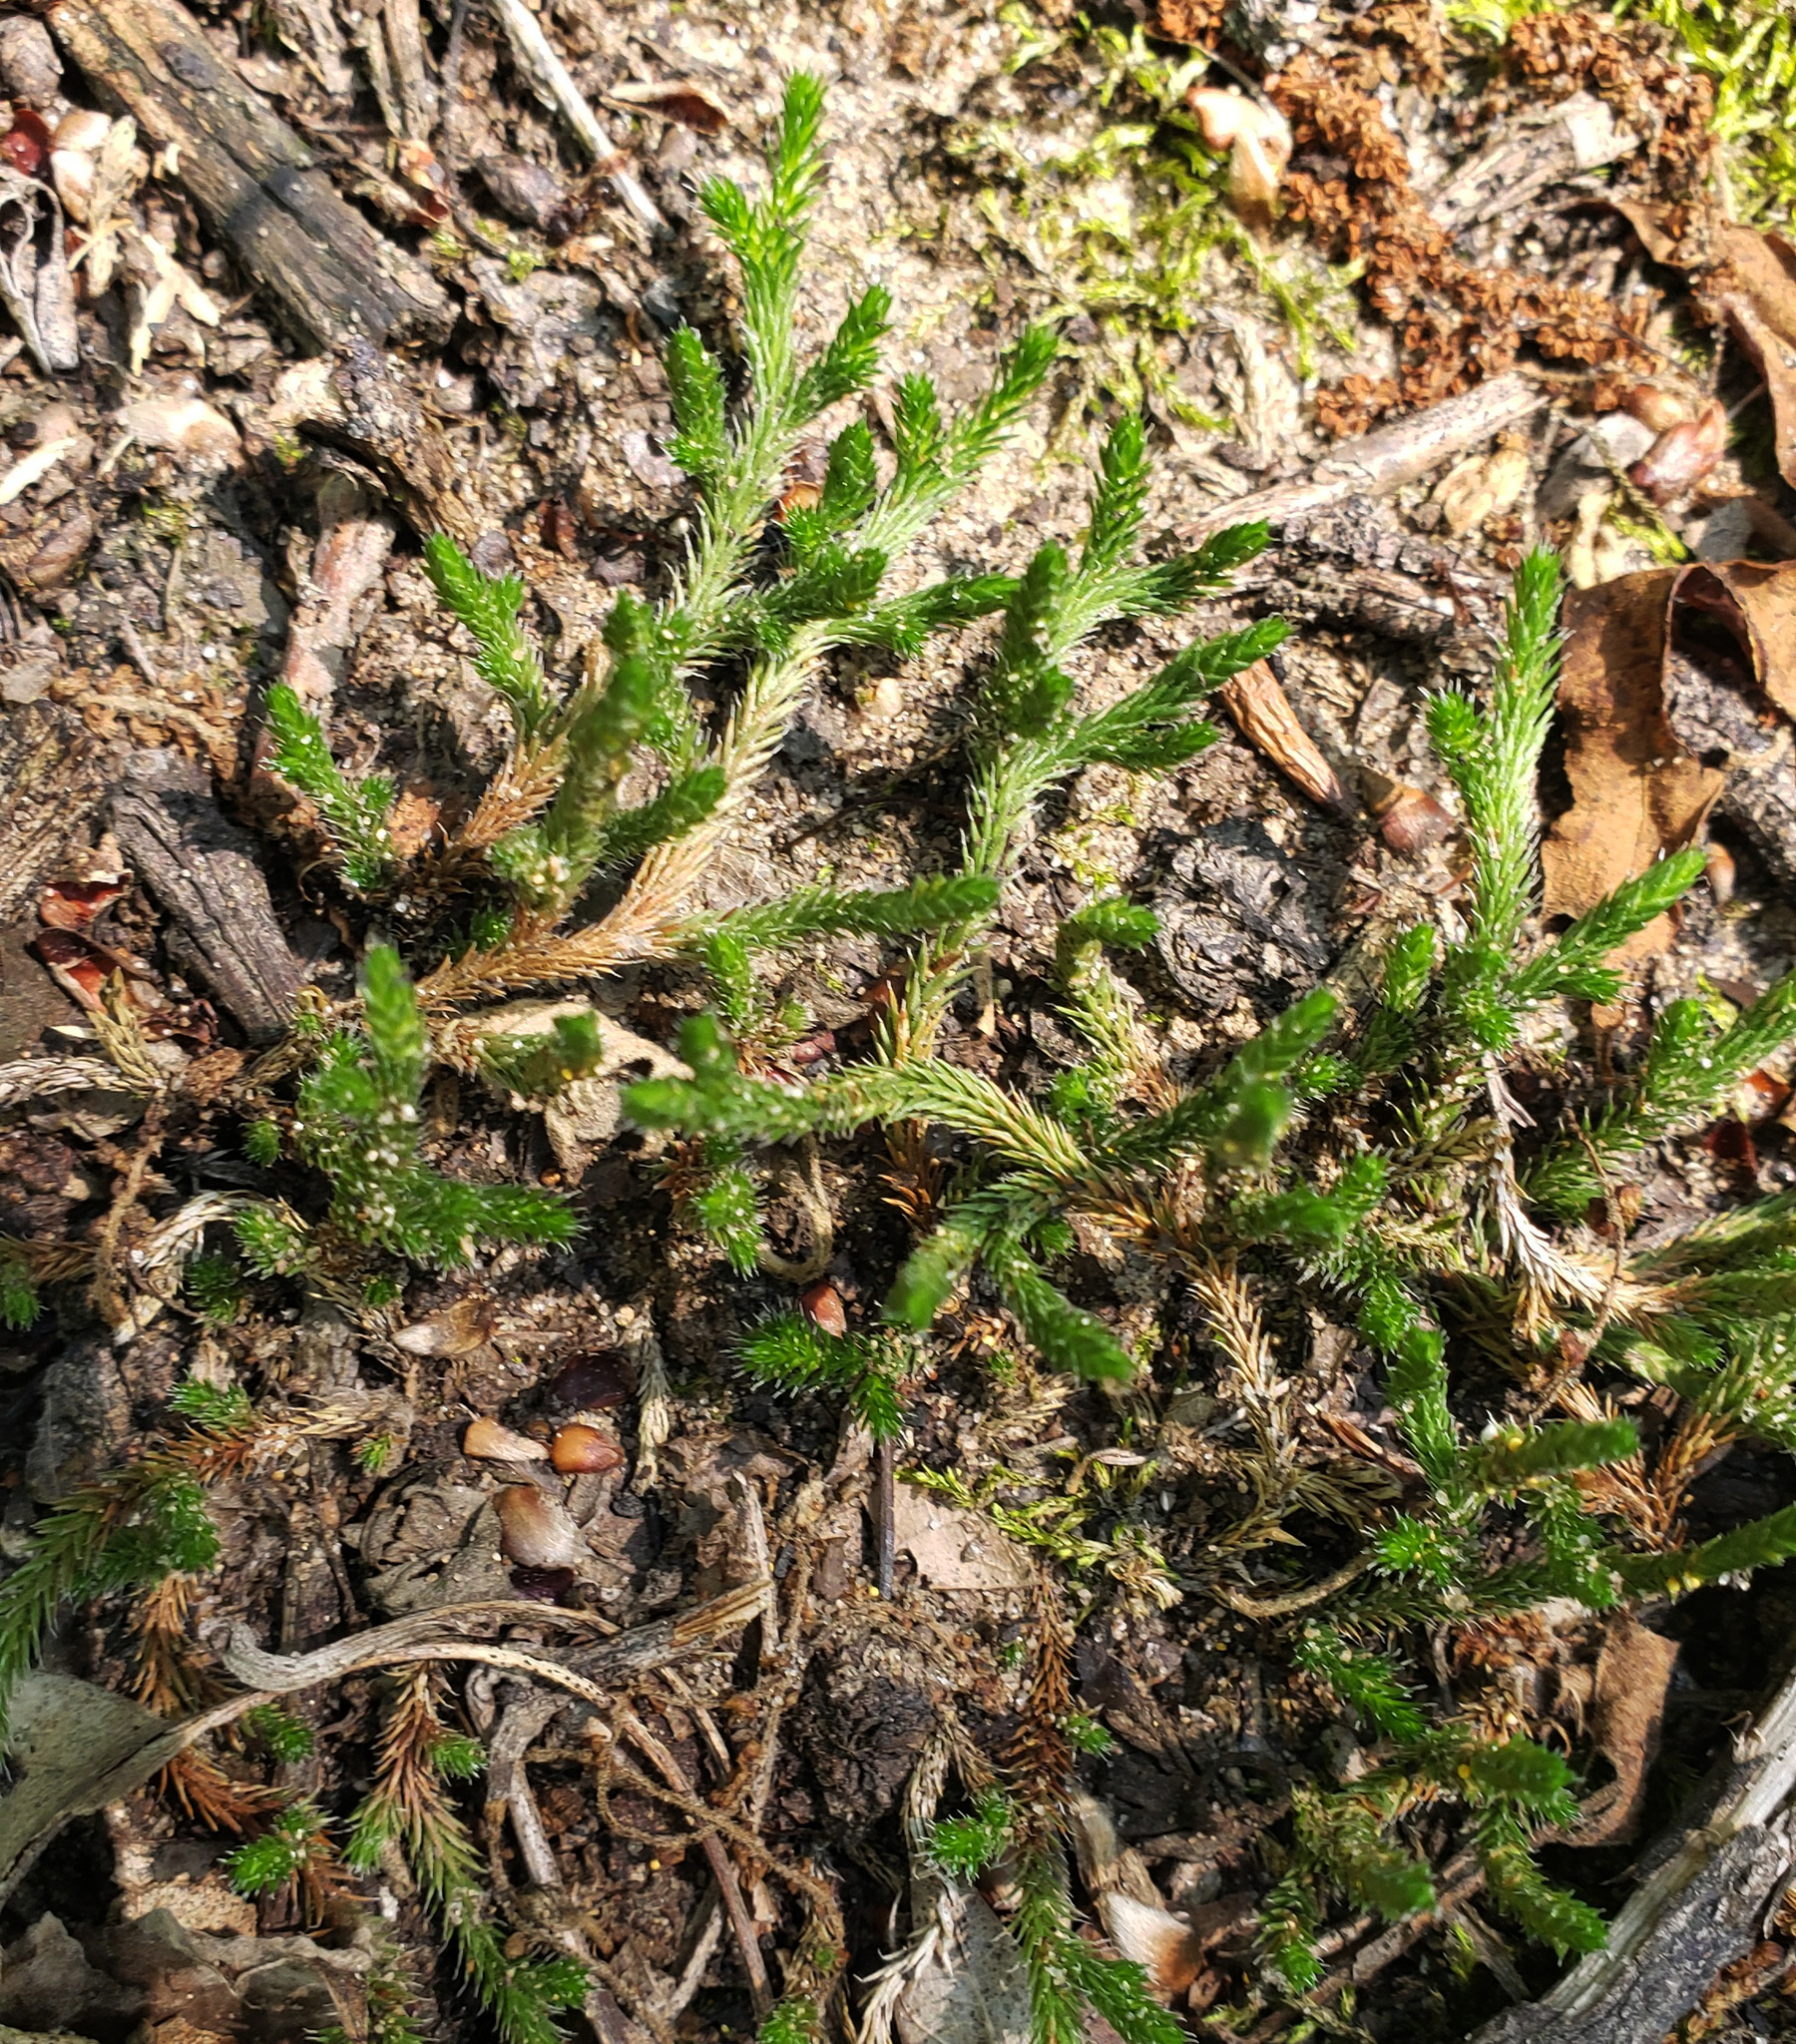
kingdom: Plantae
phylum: Tracheophyta
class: Lycopodiopsida
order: Selaginellales
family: Selaginellaceae
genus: Selaginella
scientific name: Selaginella rupestris
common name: Dwarf spikemoss
